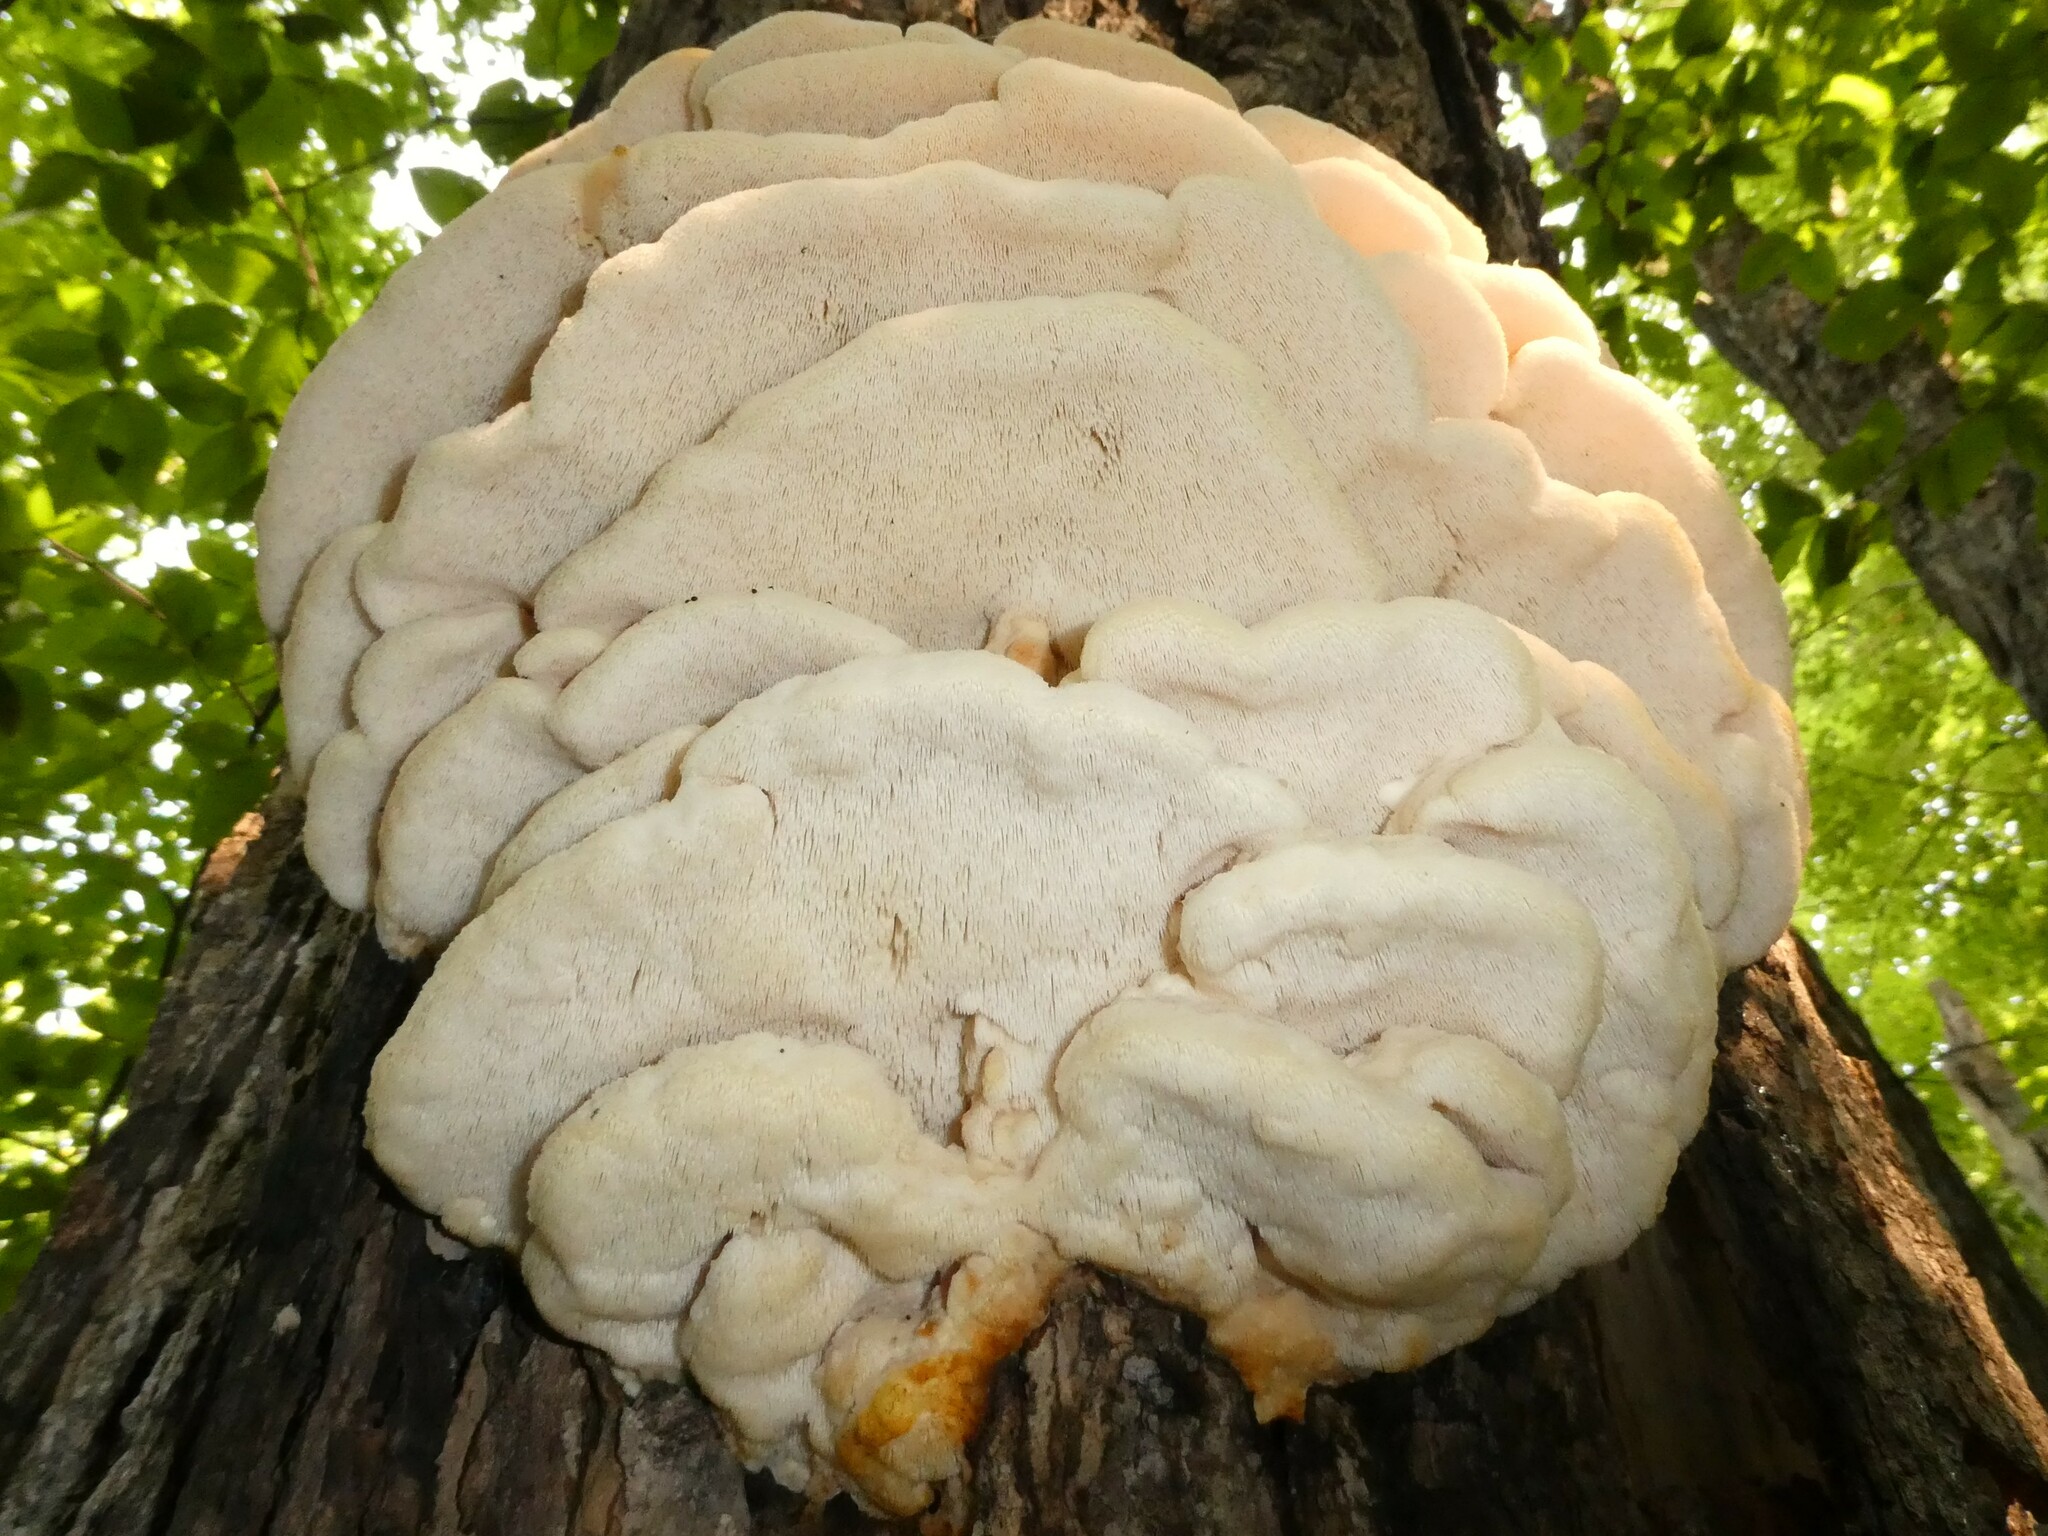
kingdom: Fungi
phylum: Basidiomycota
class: Agaricomycetes
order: Polyporales
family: Meruliaceae
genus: Climacodon
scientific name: Climacodon septentrionalis
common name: Northern tooth
